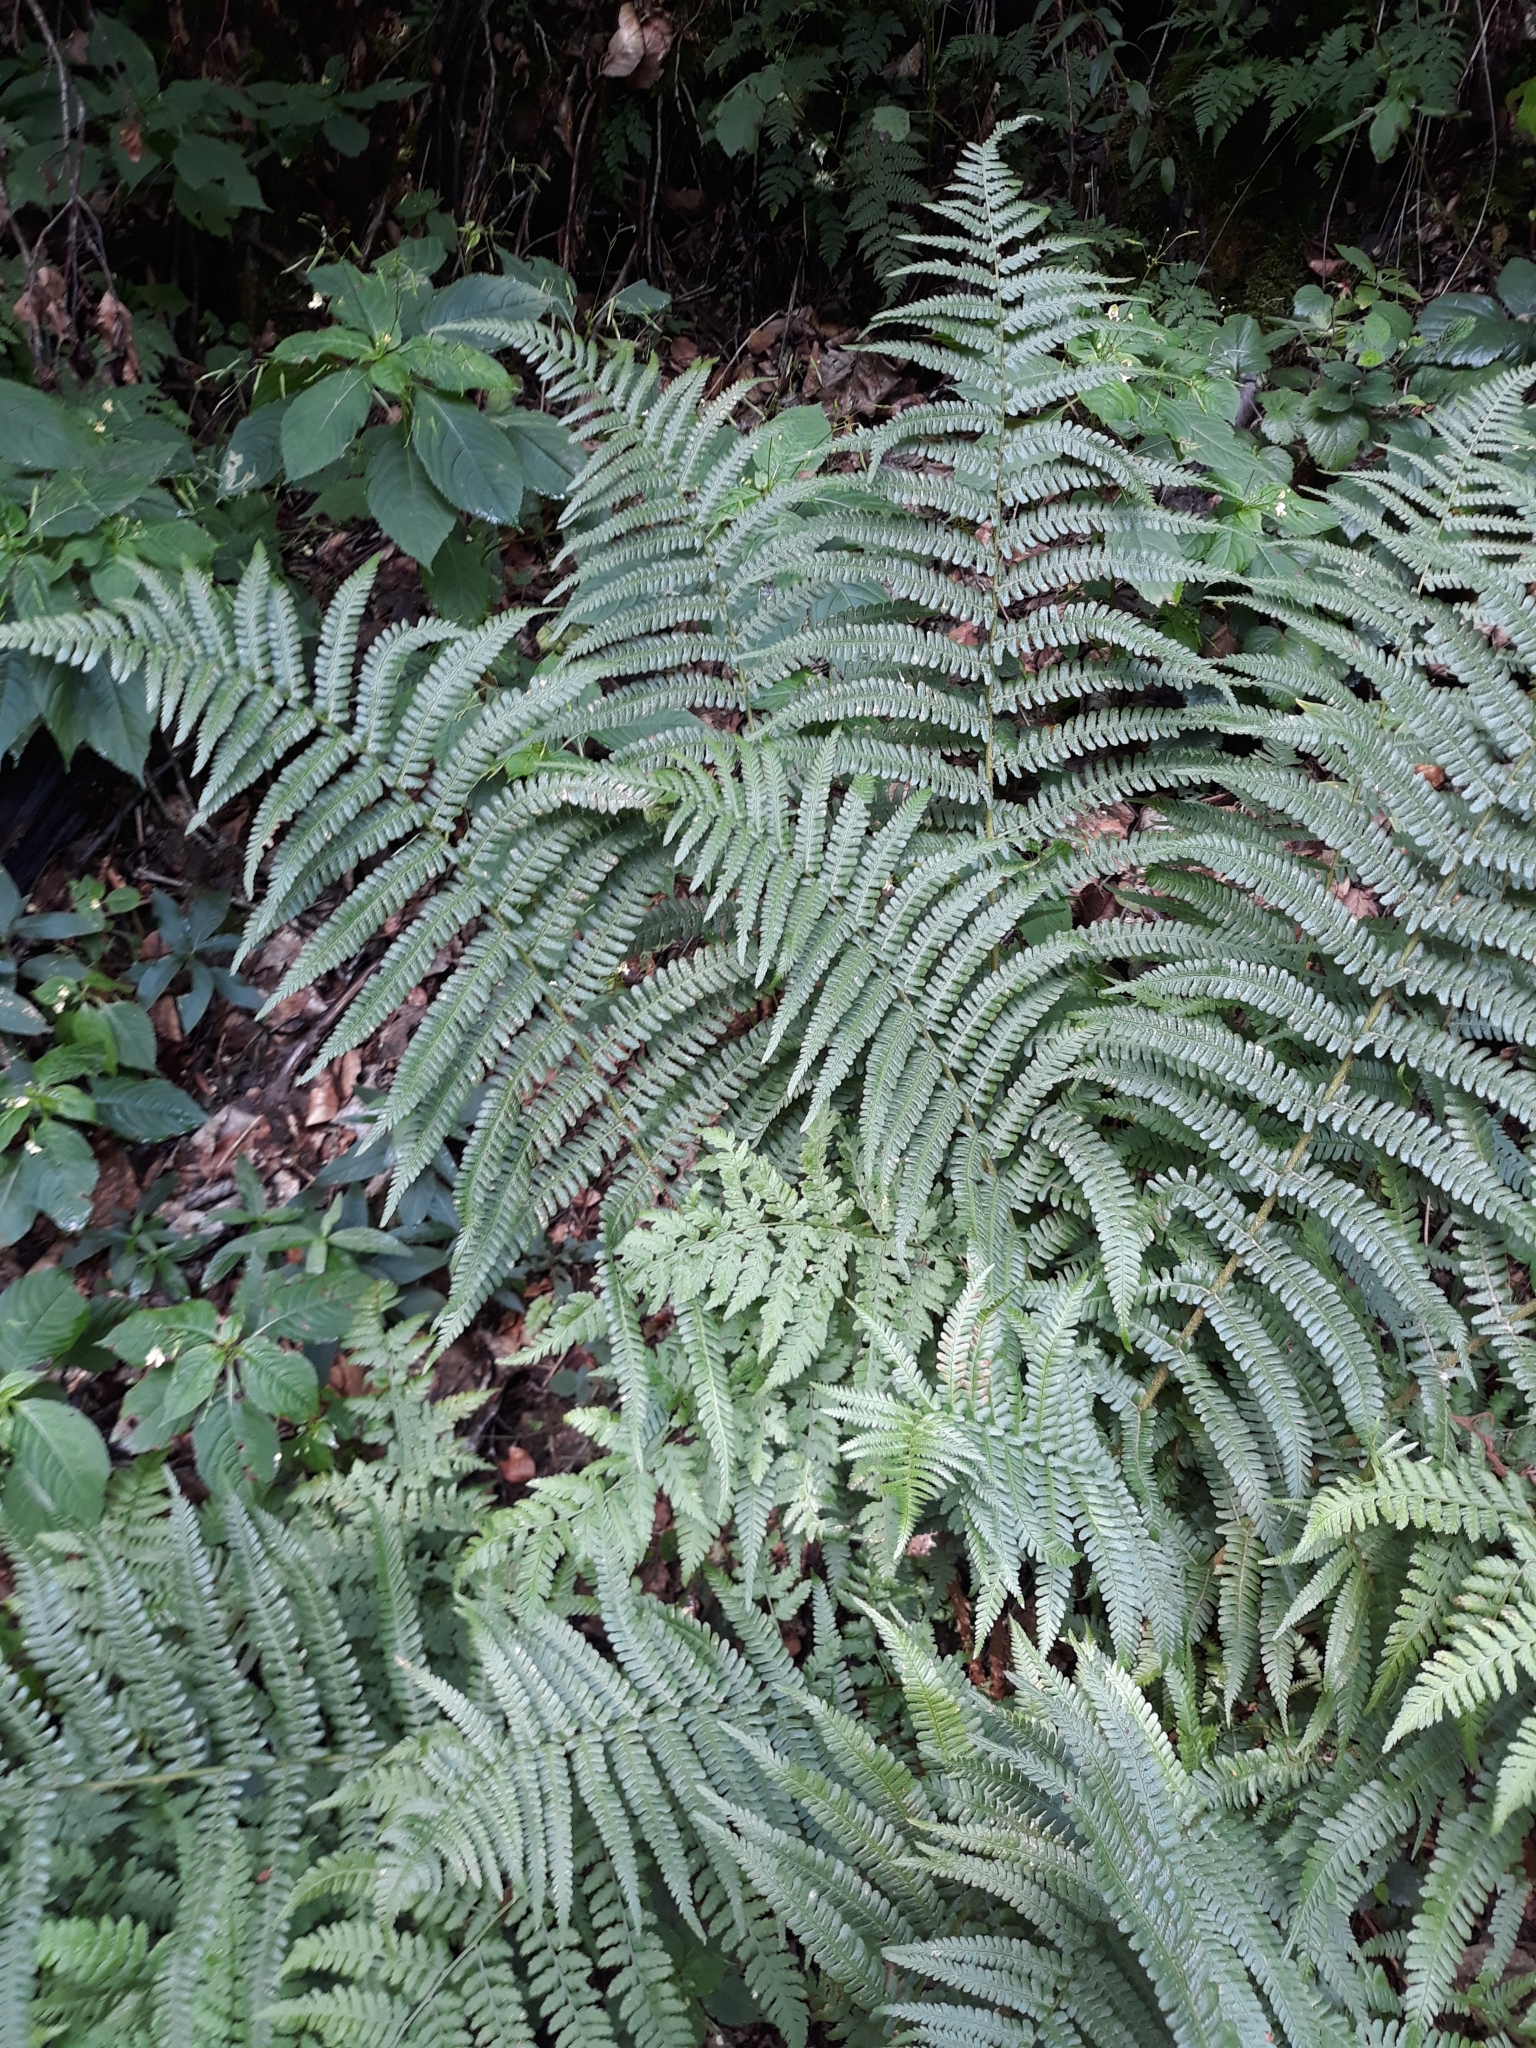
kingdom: Plantae
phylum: Tracheophyta
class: Polypodiopsida
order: Polypodiales
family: Dryopteridaceae
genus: Dryopteris
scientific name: Dryopteris filix-mas
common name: Male fern
